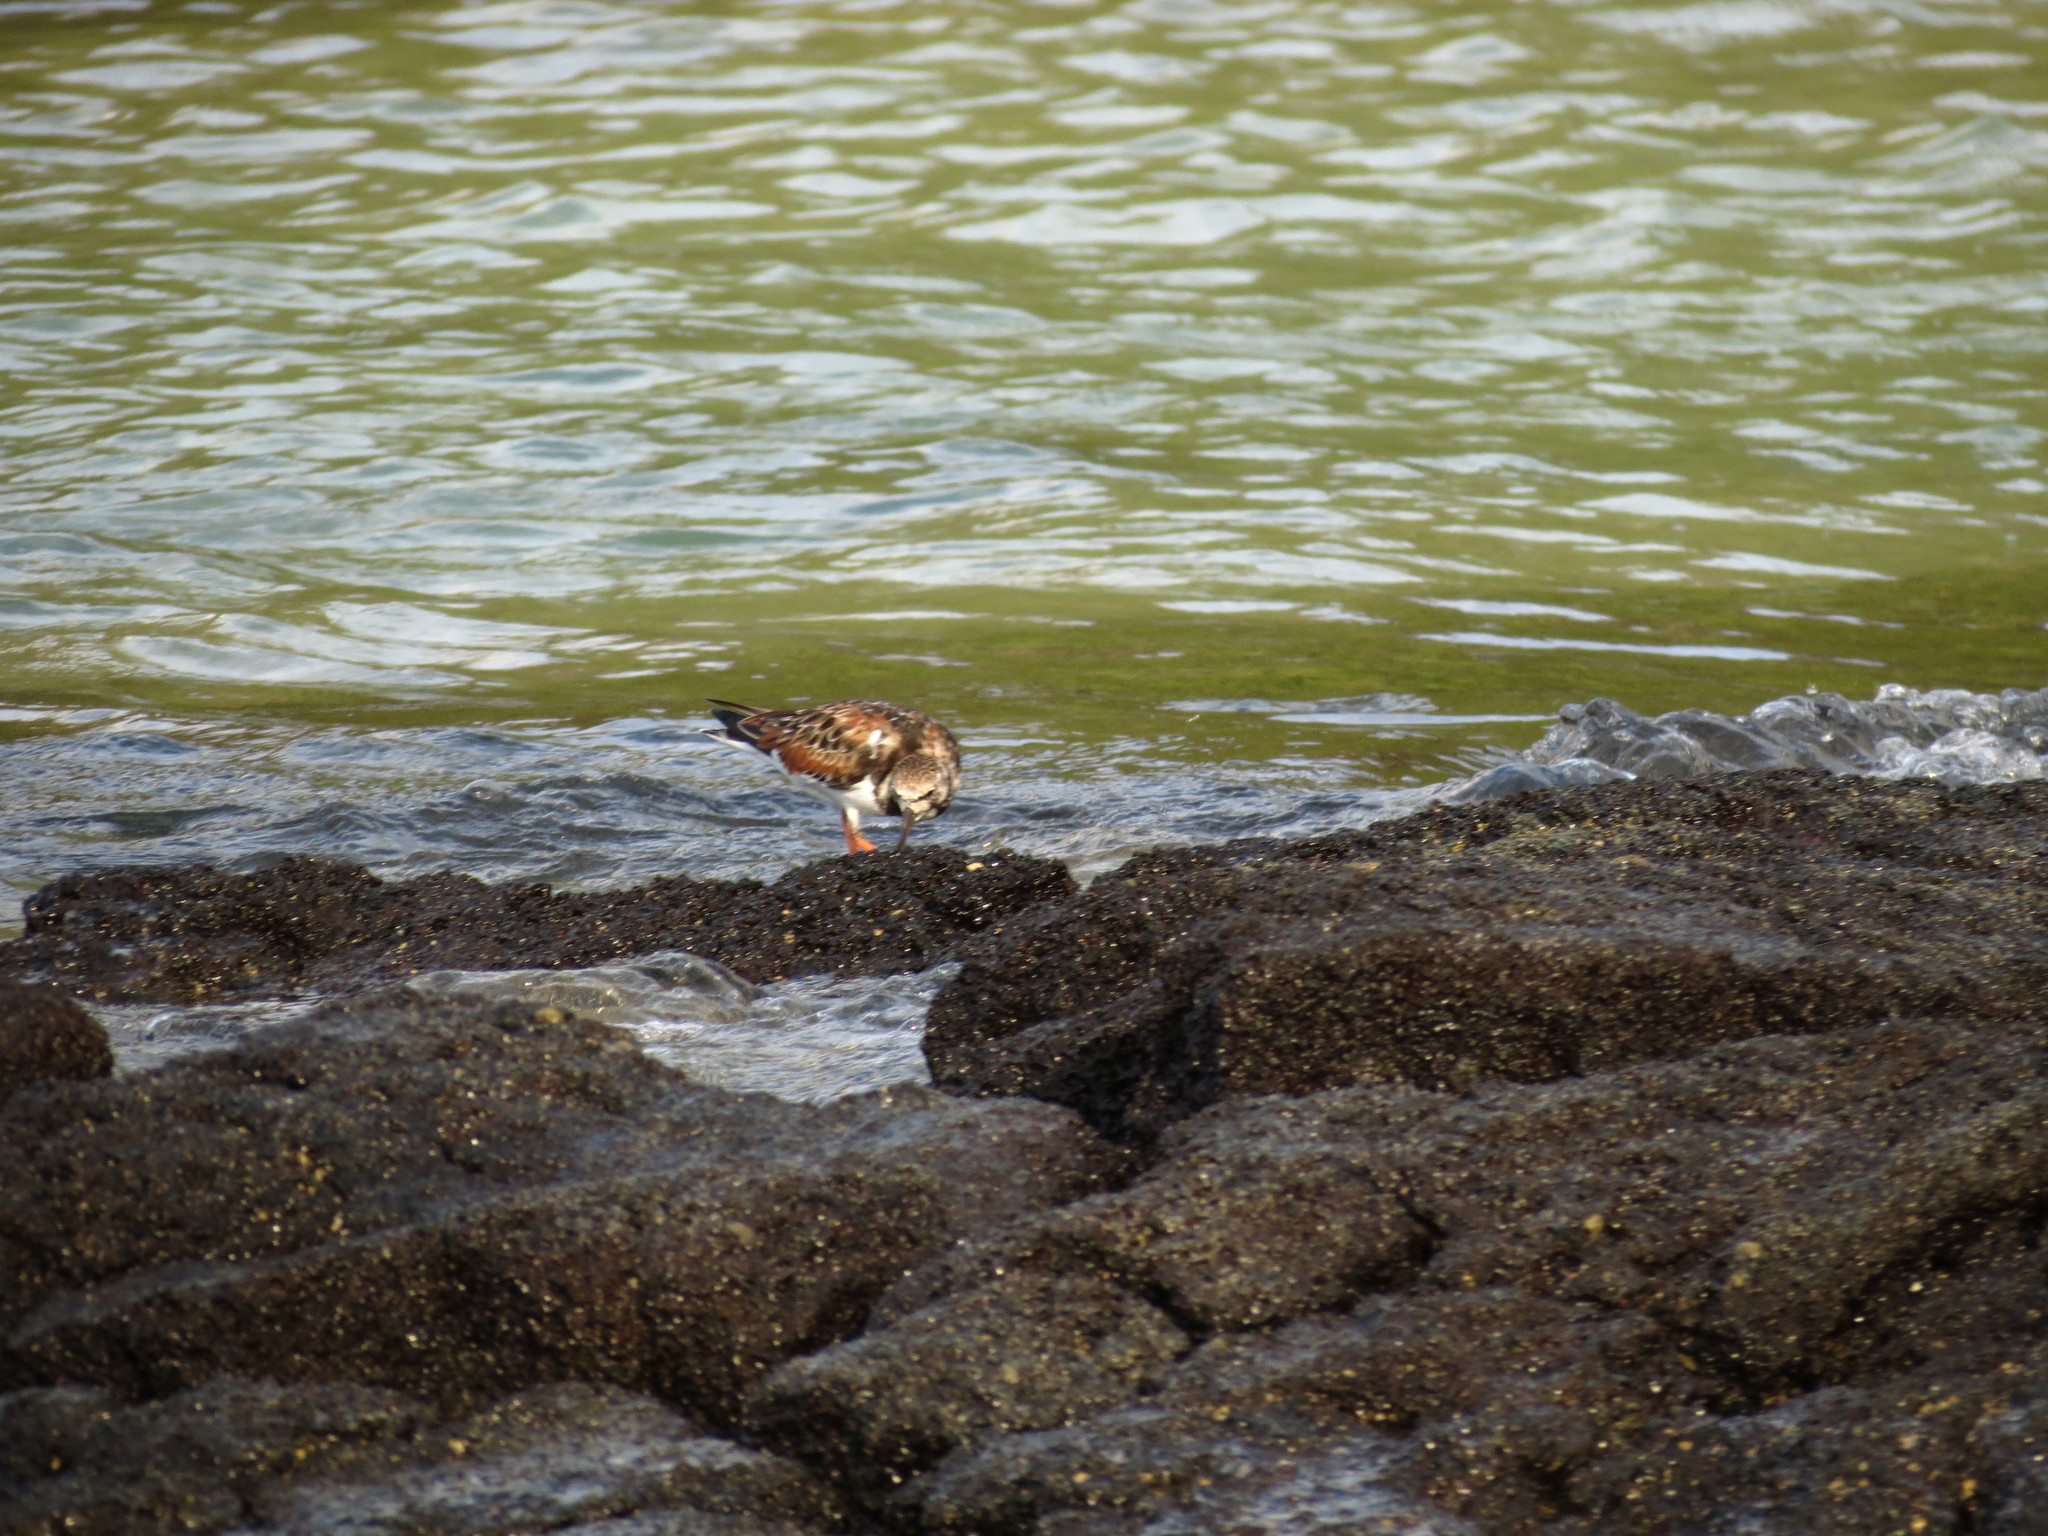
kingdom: Animalia
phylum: Chordata
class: Aves
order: Charadriiformes
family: Scolopacidae
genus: Arenaria
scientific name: Arenaria interpres
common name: Ruddy turnstone
